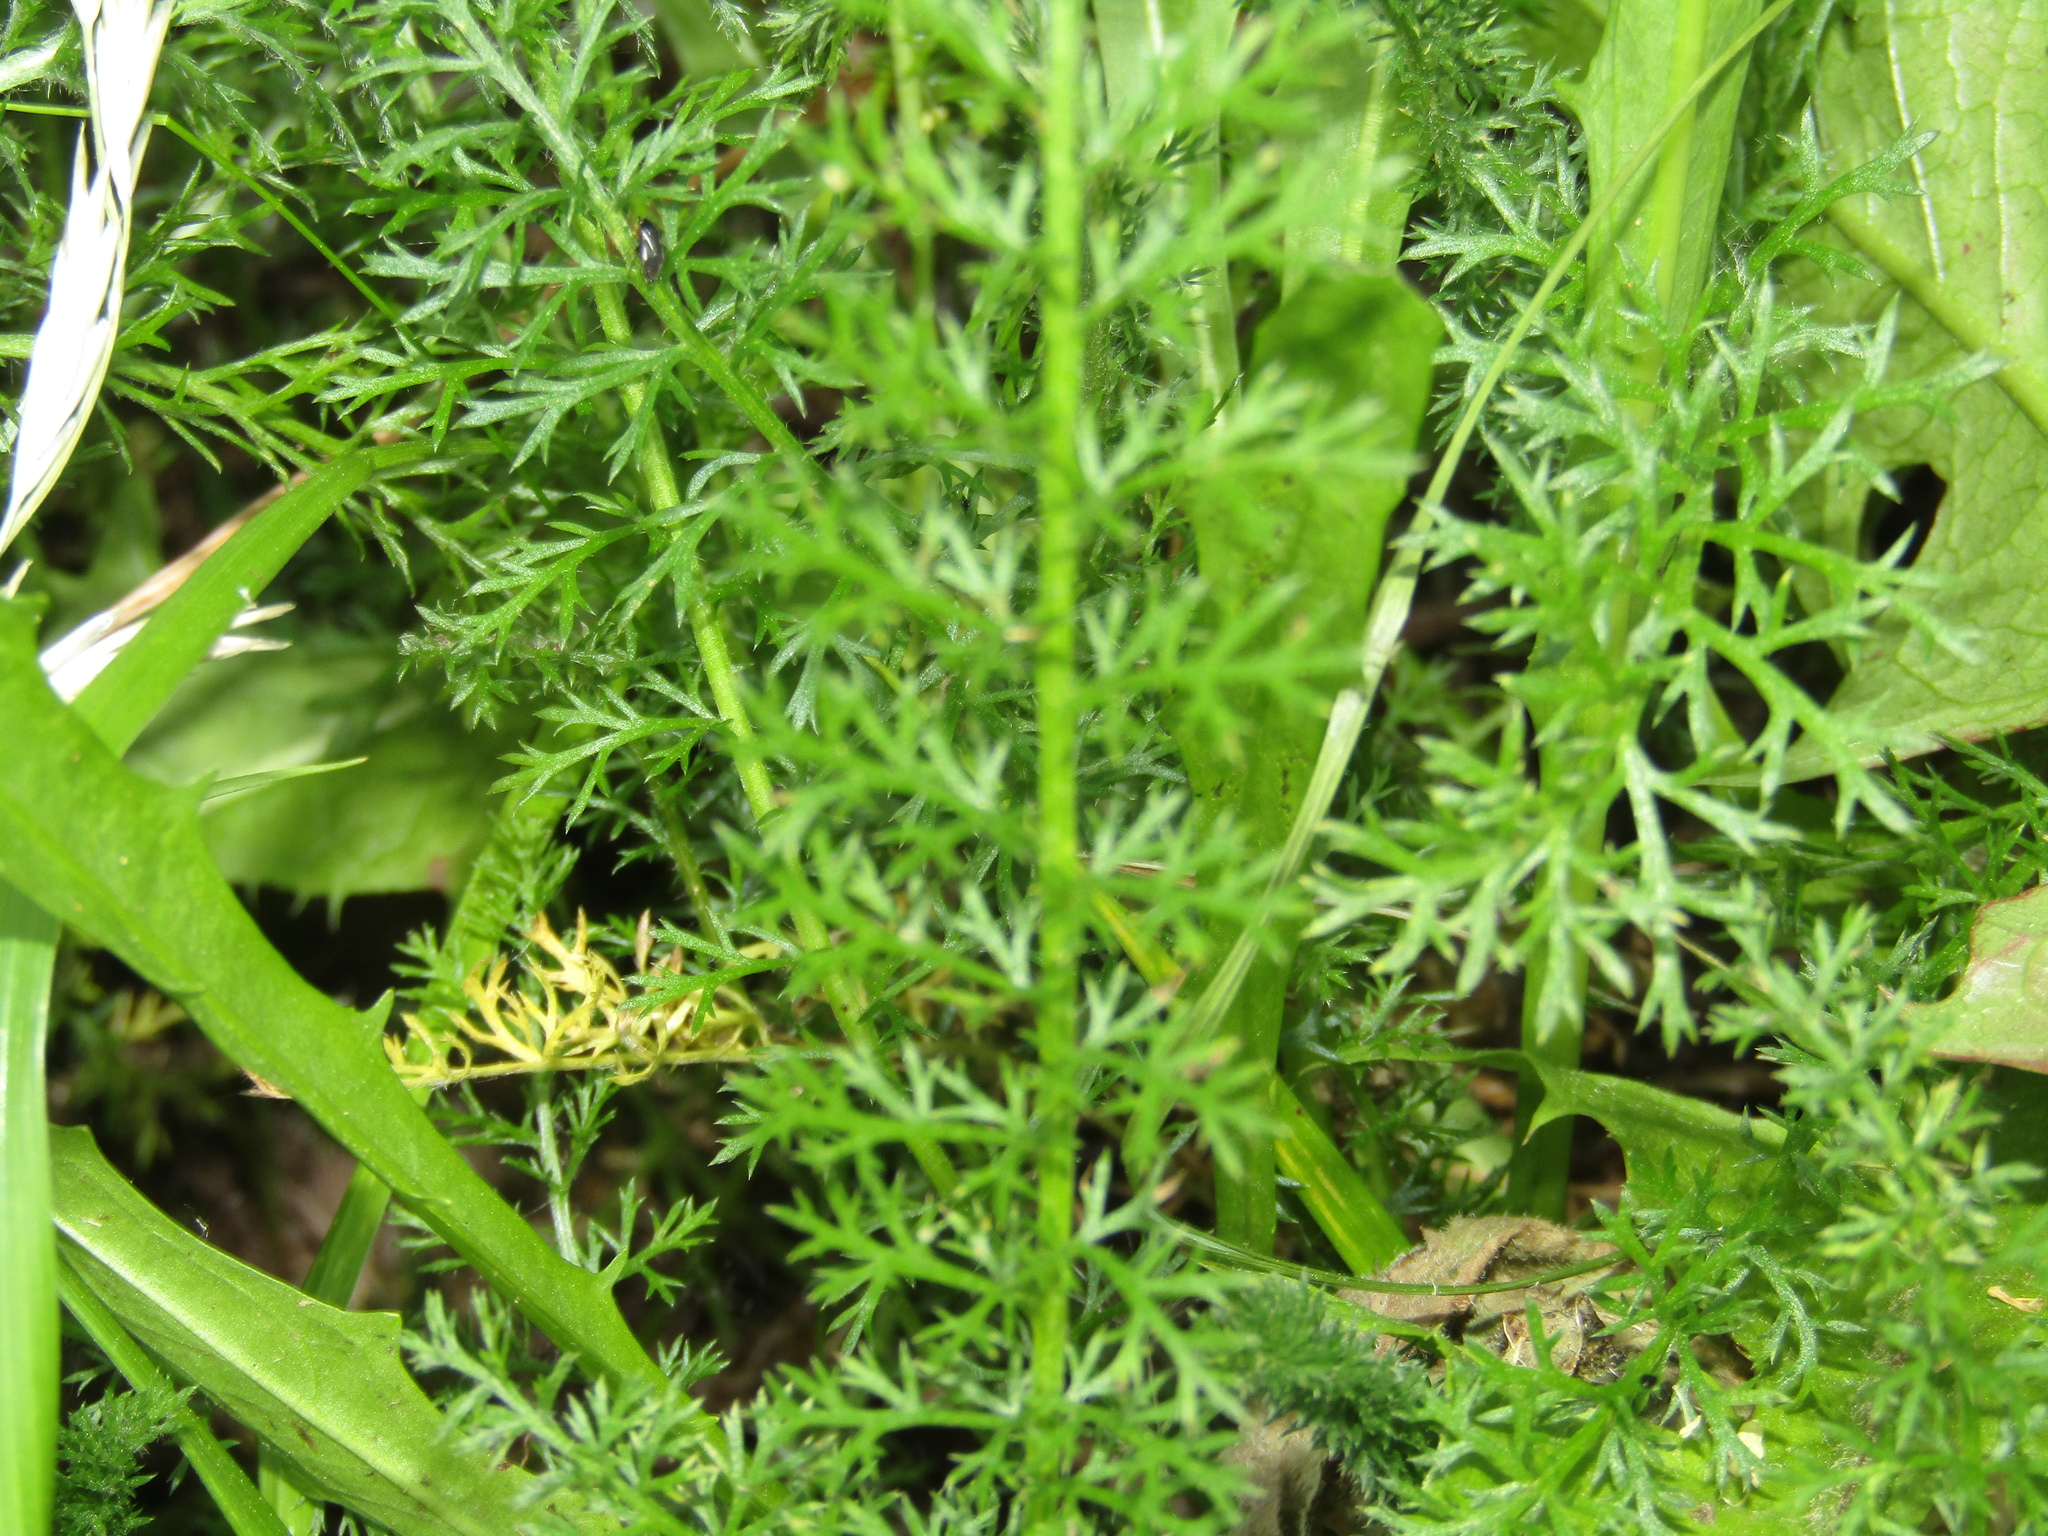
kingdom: Plantae
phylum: Tracheophyta
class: Magnoliopsida
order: Asterales
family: Asteraceae
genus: Achillea
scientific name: Achillea millefolium
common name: Yarrow
